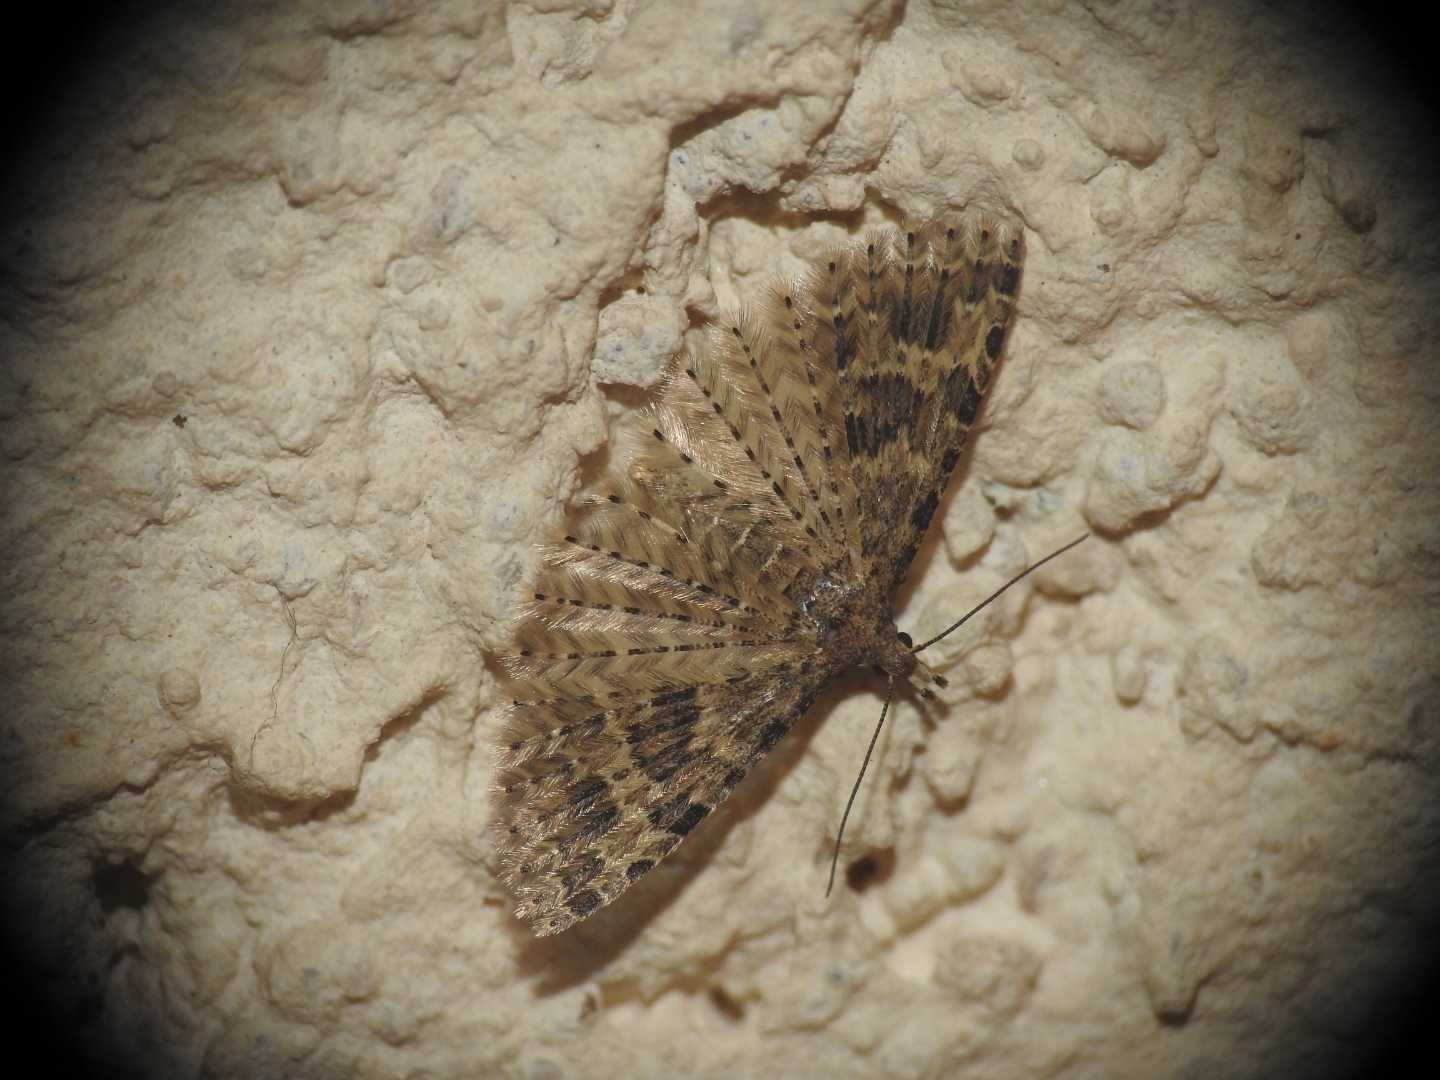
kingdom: Animalia
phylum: Arthropoda
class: Insecta
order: Lepidoptera
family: Alucitidae
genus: Alucita
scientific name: Alucita hexadactyla
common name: Twenty-plume moth
